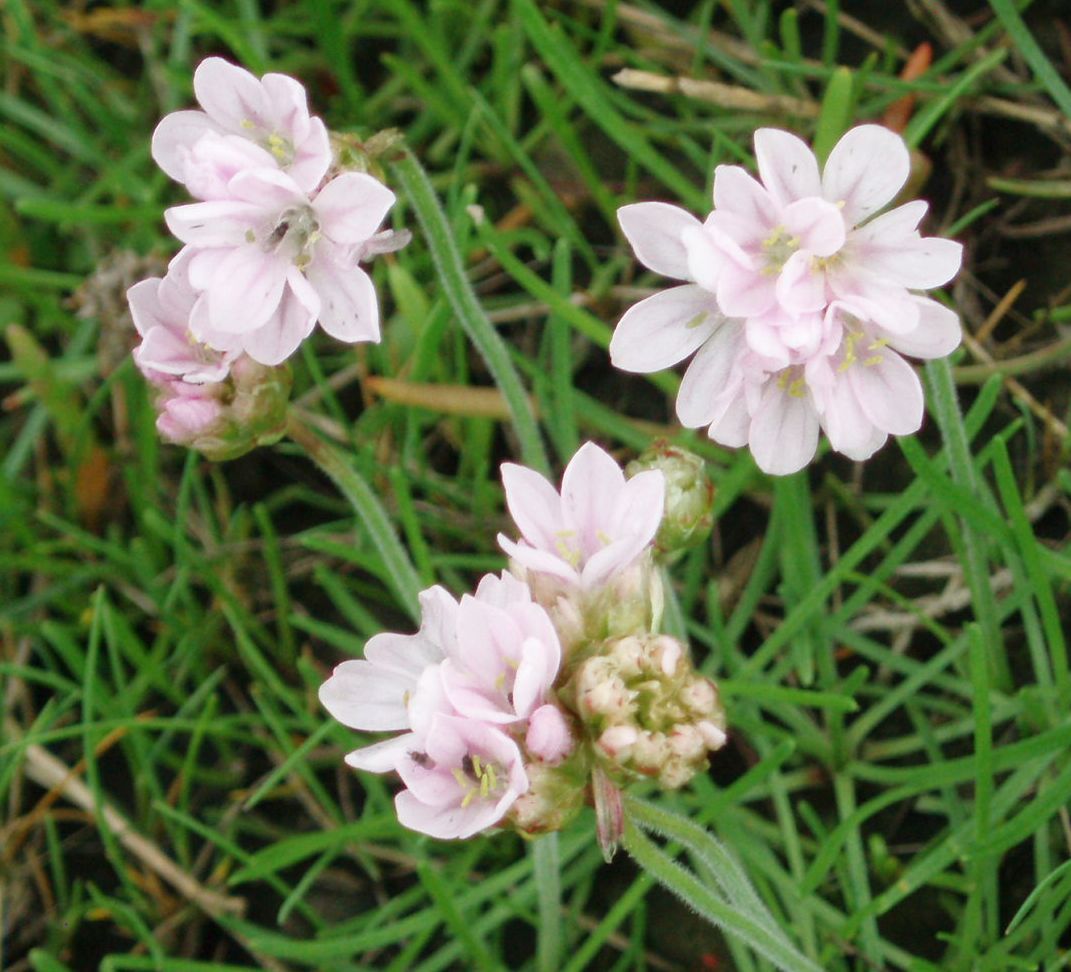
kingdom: Plantae
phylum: Tracheophyta
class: Magnoliopsida
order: Caryophyllales
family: Plumbaginaceae
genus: Armeria
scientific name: Armeria maritima
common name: Thrift
